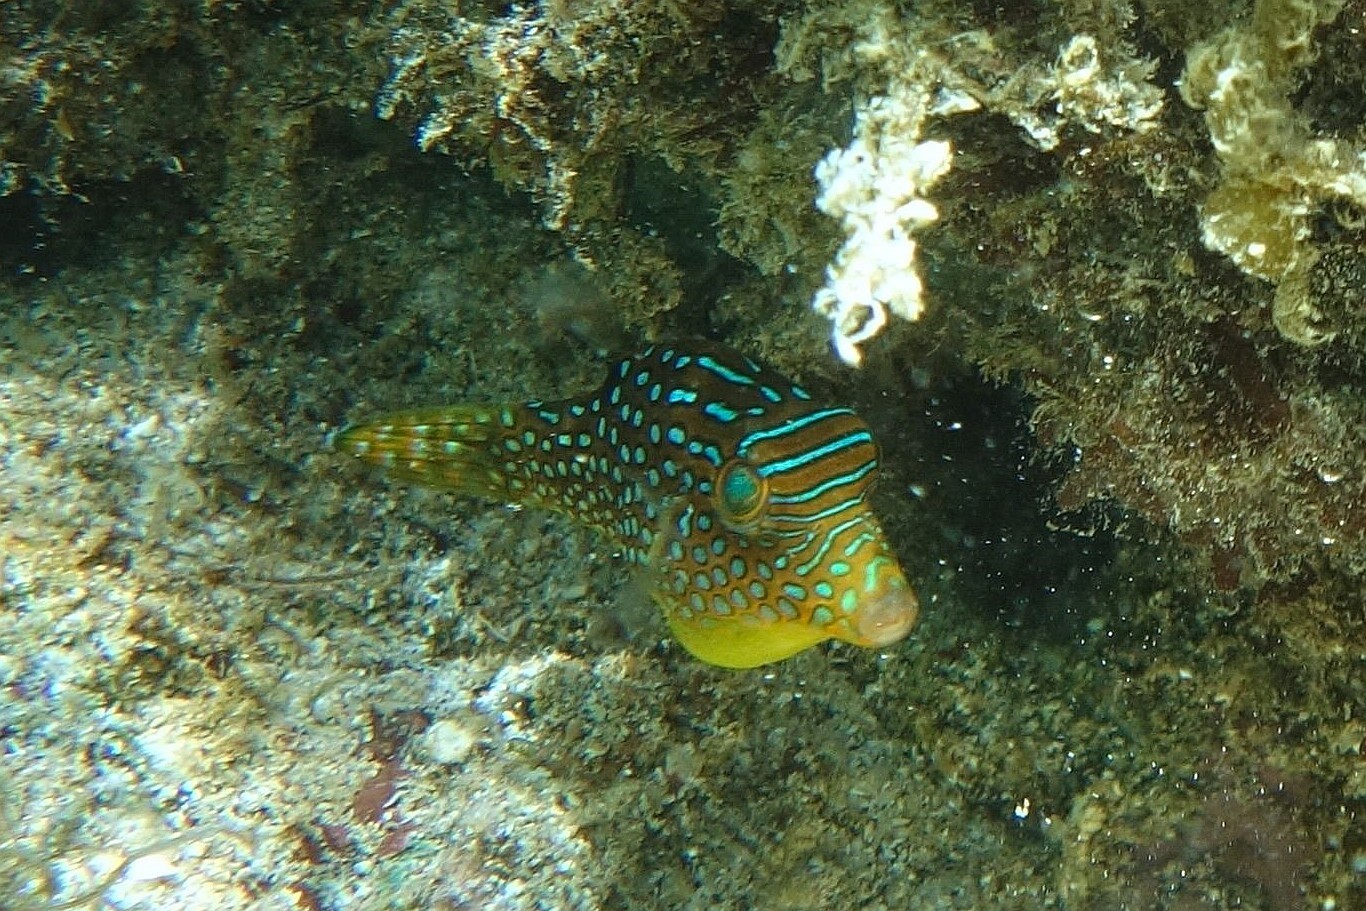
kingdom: Animalia
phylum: Chordata
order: Tetraodontiformes
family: Tetraodontidae
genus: Canthigaster
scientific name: Canthigaster solandri
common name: False-eye toby
